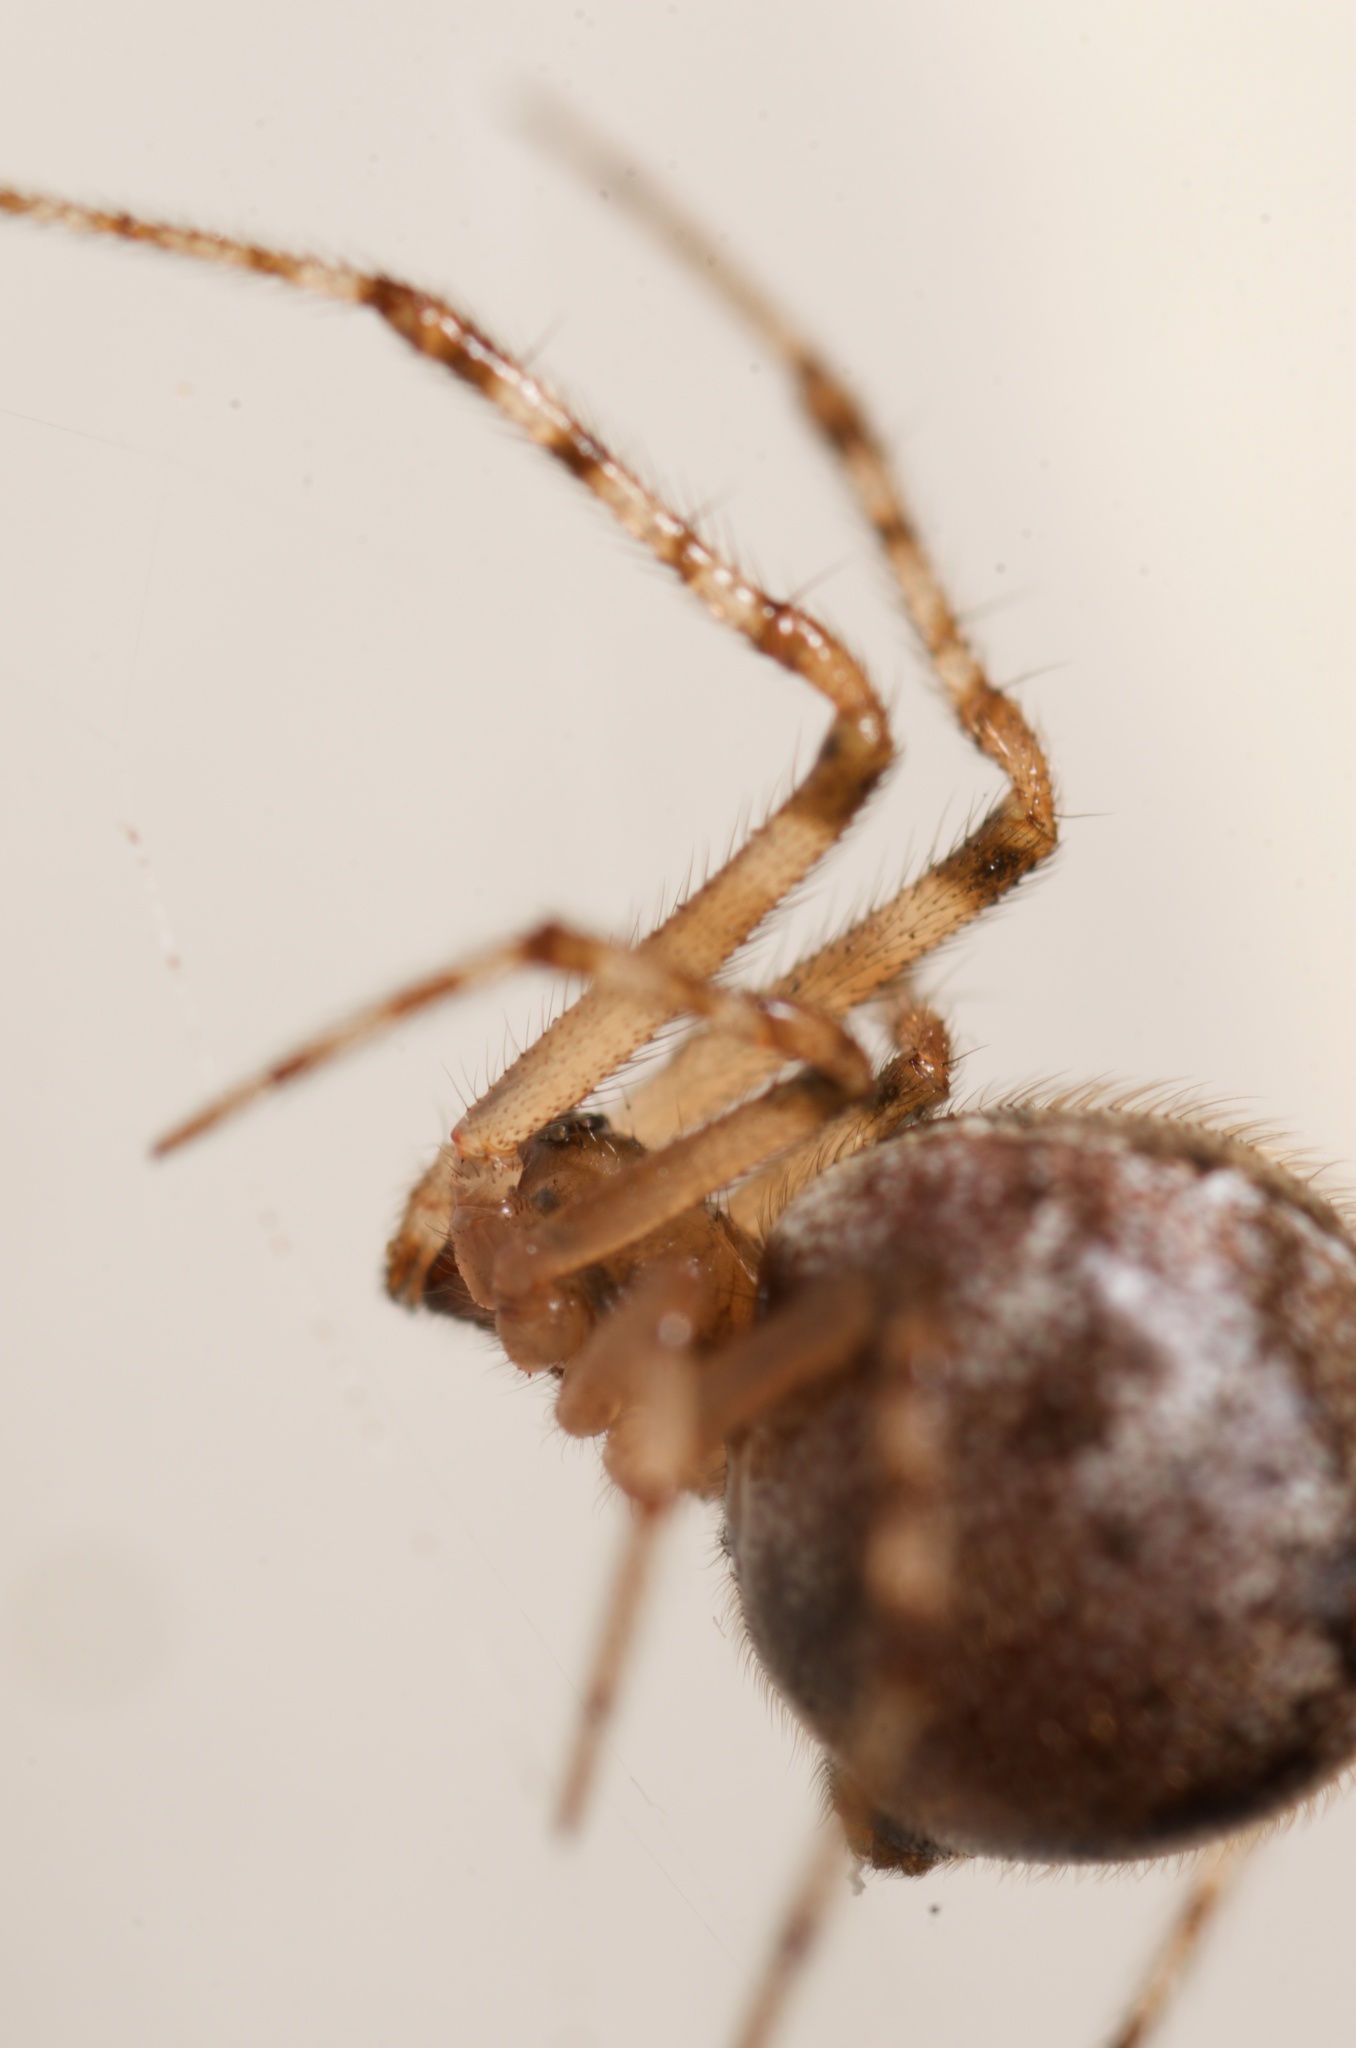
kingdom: Animalia
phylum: Arthropoda
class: Arachnida
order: Araneae
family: Theridiidae
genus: Cryptachaea
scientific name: Cryptachaea veruculata
